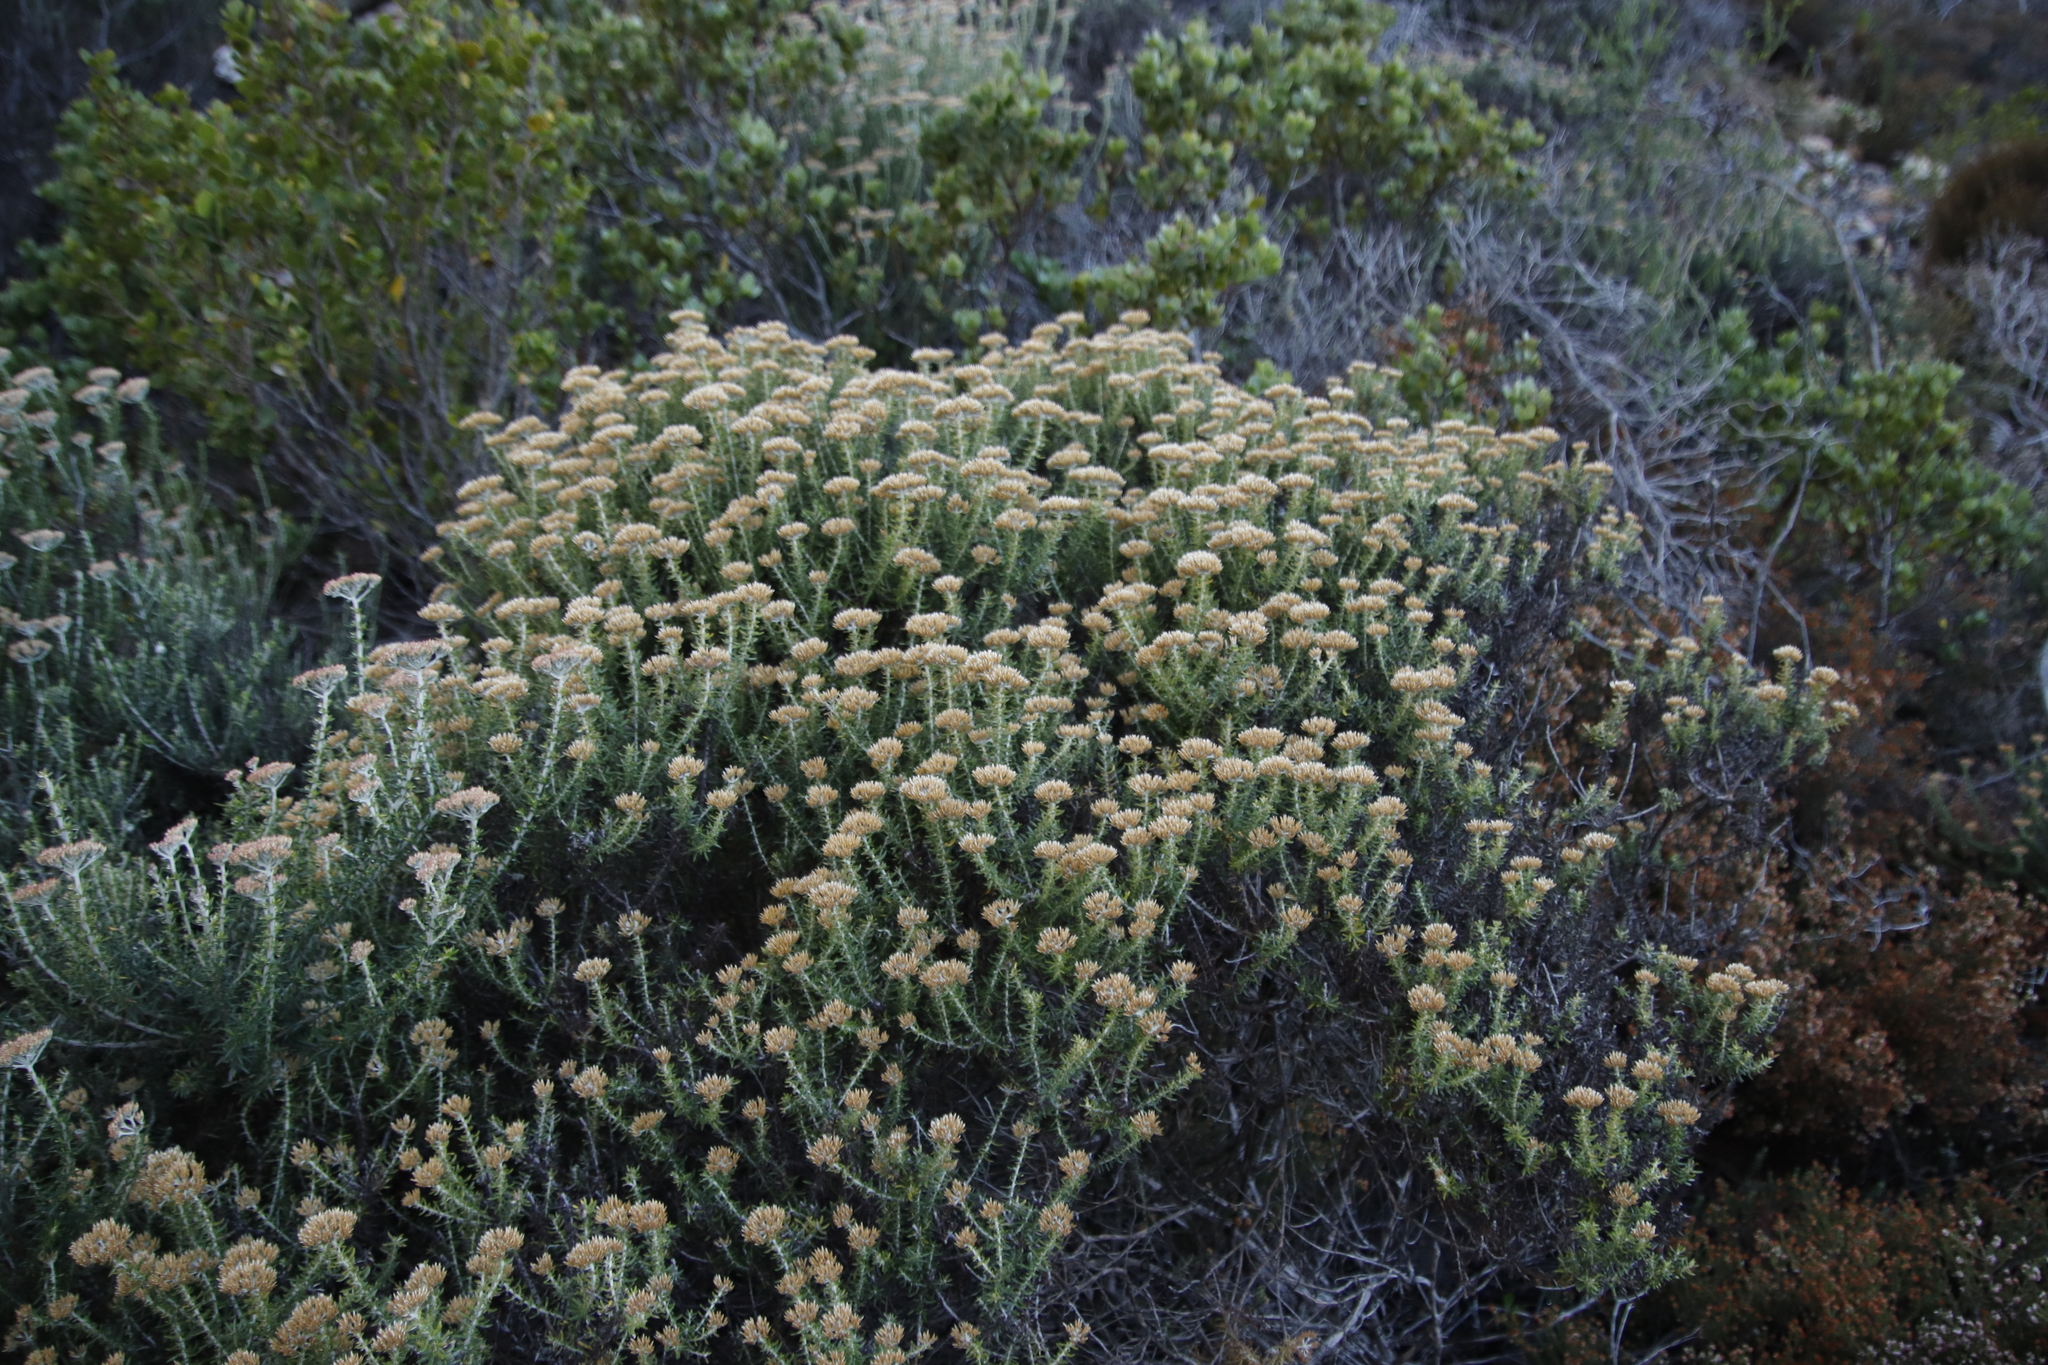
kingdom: Plantae
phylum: Tracheophyta
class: Magnoliopsida
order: Asterales
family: Asteraceae
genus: Metalasia
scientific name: Metalasia densa
